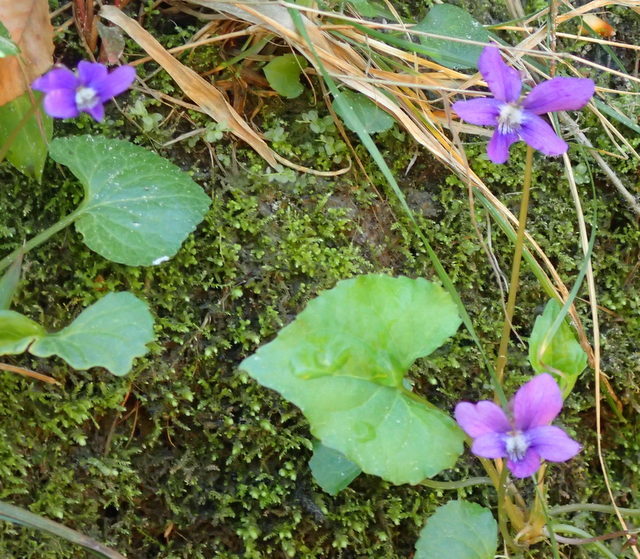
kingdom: Plantae
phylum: Tracheophyta
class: Magnoliopsida
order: Malpighiales
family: Violaceae
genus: Viola
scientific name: Viola sororia
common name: Dooryard violet
